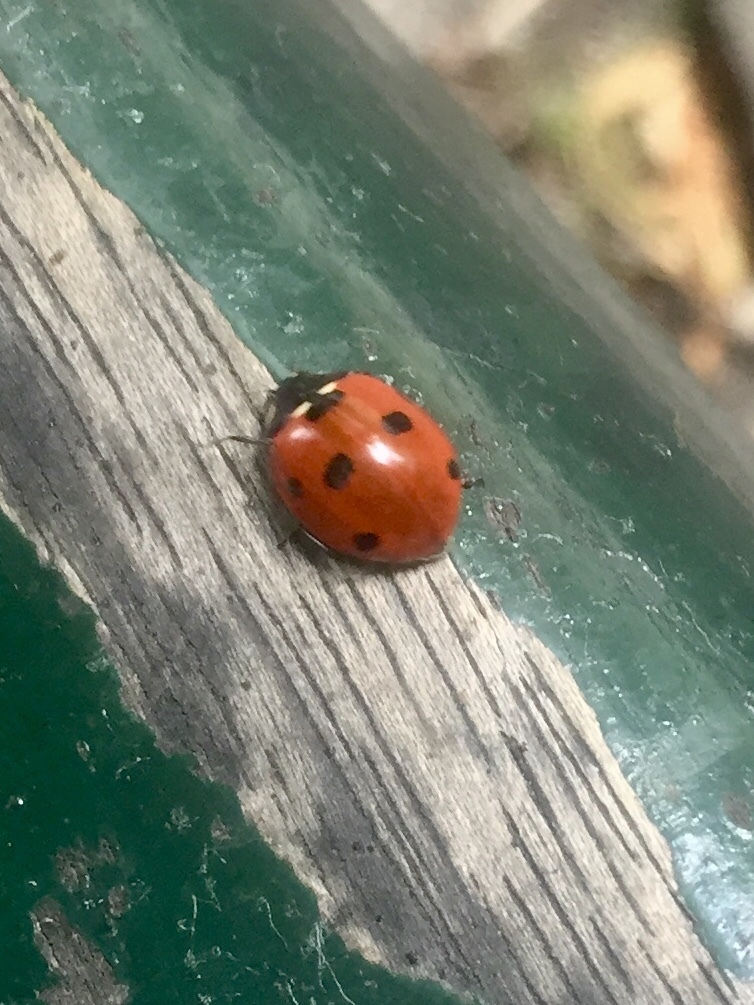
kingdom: Animalia
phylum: Arthropoda
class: Insecta
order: Coleoptera
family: Coccinellidae
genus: Coccinella
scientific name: Coccinella septempunctata
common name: Sevenspotted lady beetle
